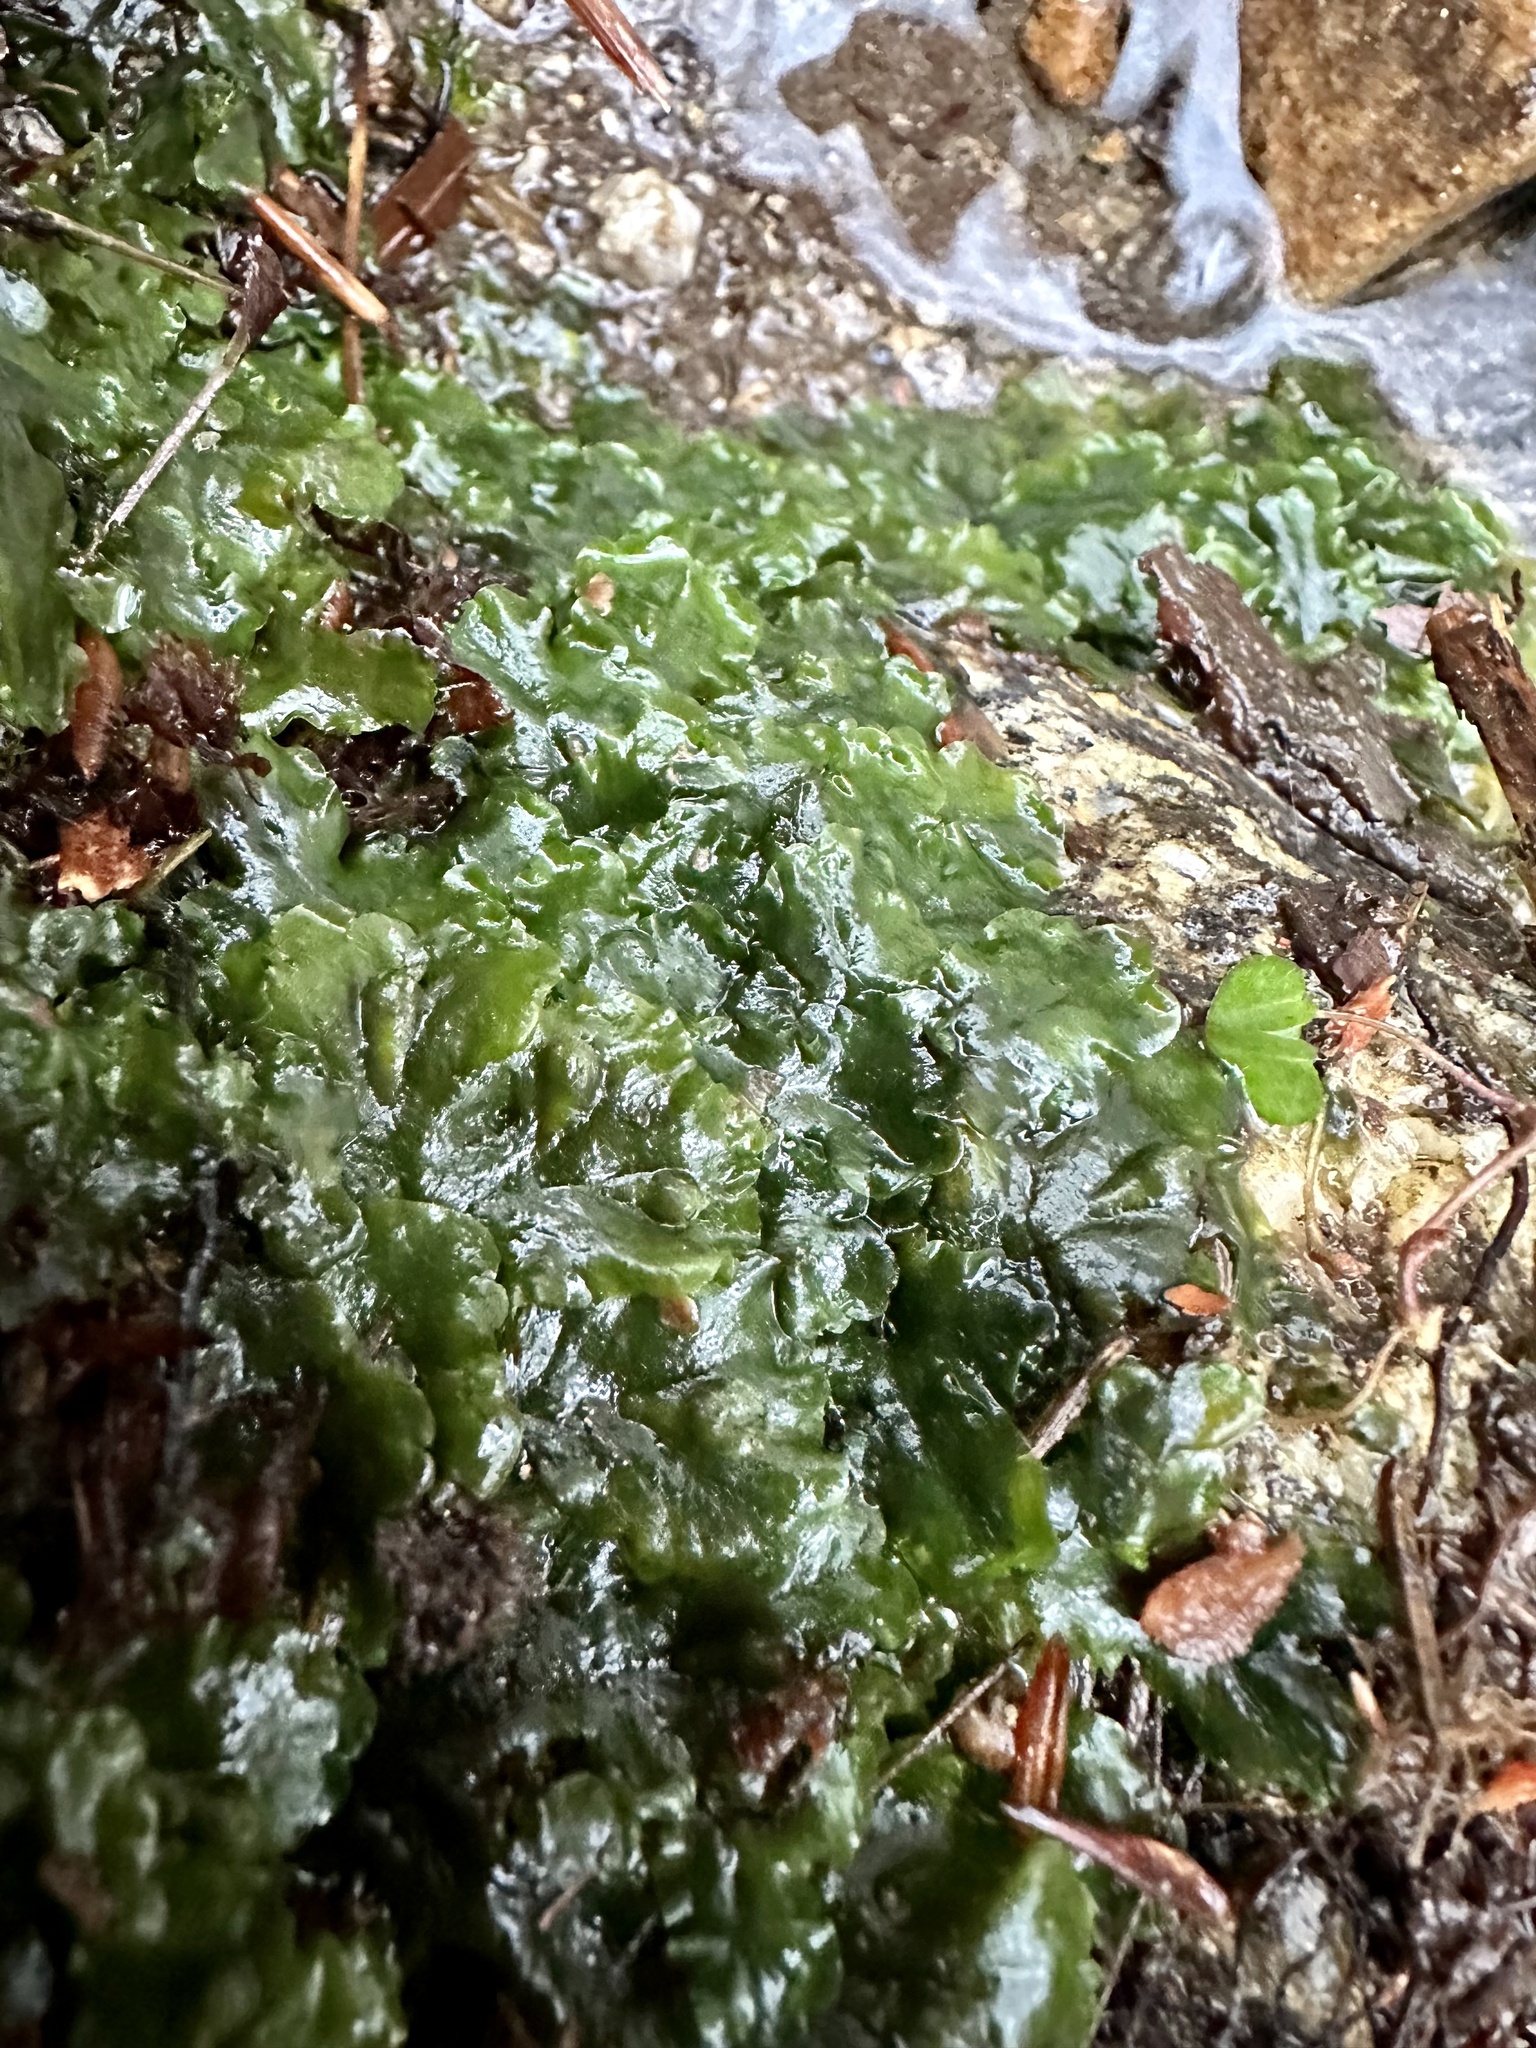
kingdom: Plantae
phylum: Marchantiophyta
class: Jungermanniopsida
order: Metzgeriales
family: Aneuraceae
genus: Aneura
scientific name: Aneura pinguis
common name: Common greasewort
